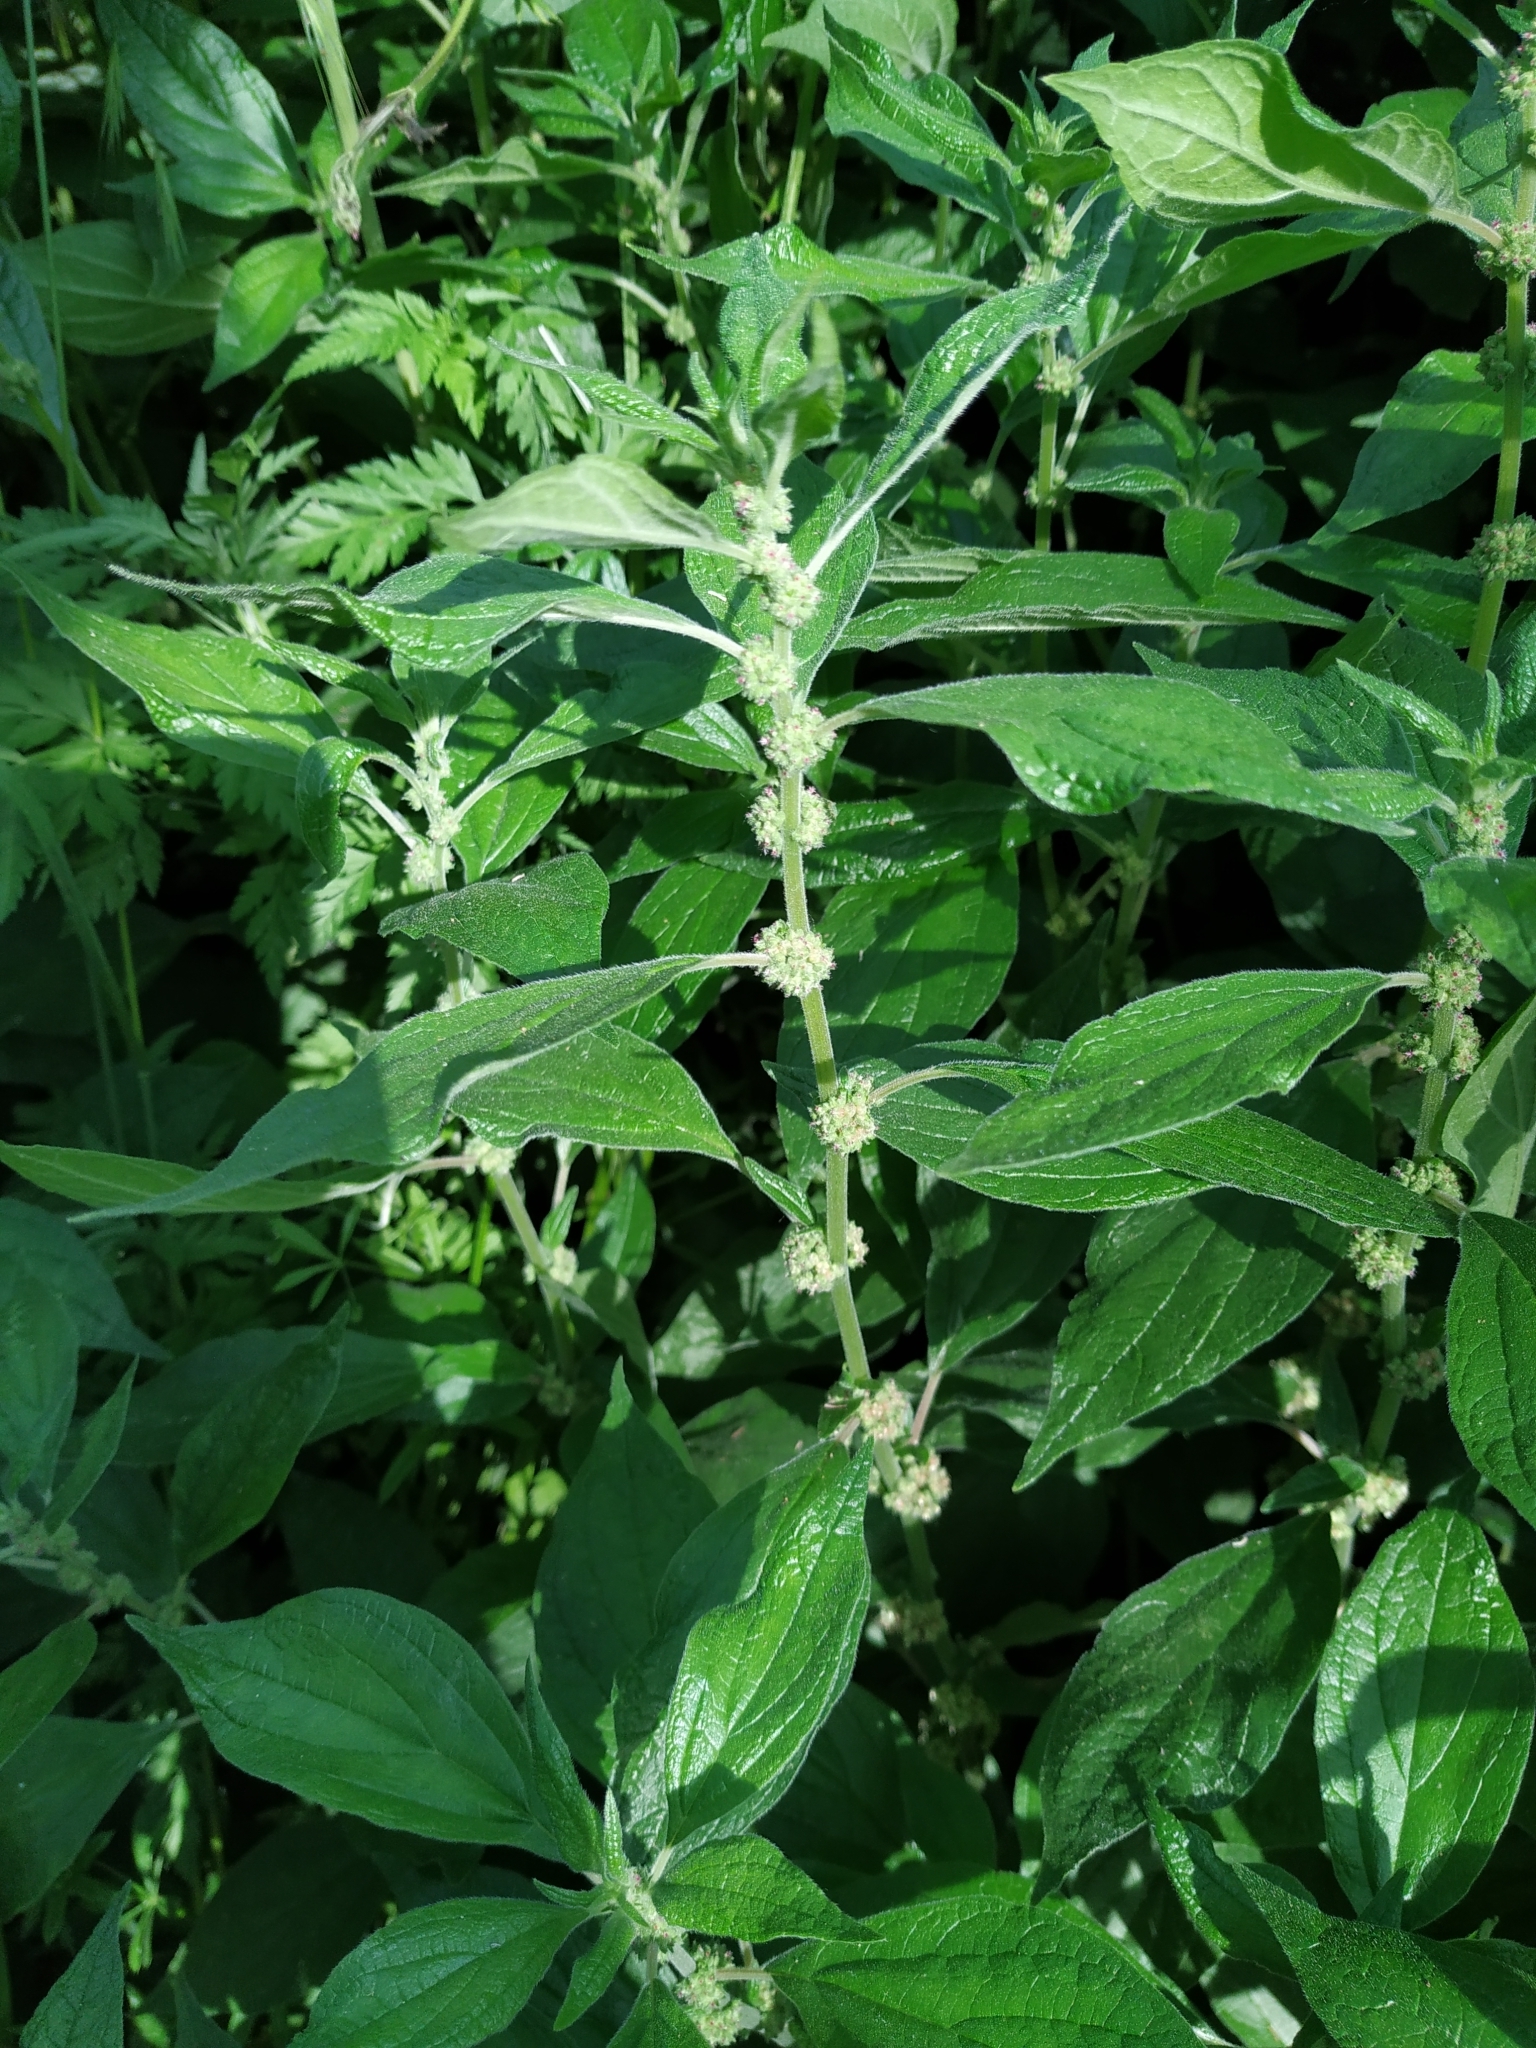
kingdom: Plantae
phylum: Tracheophyta
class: Magnoliopsida
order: Rosales
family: Urticaceae
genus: Parietaria
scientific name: Parietaria officinalis
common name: Eastern pellitory-of-the-wall
